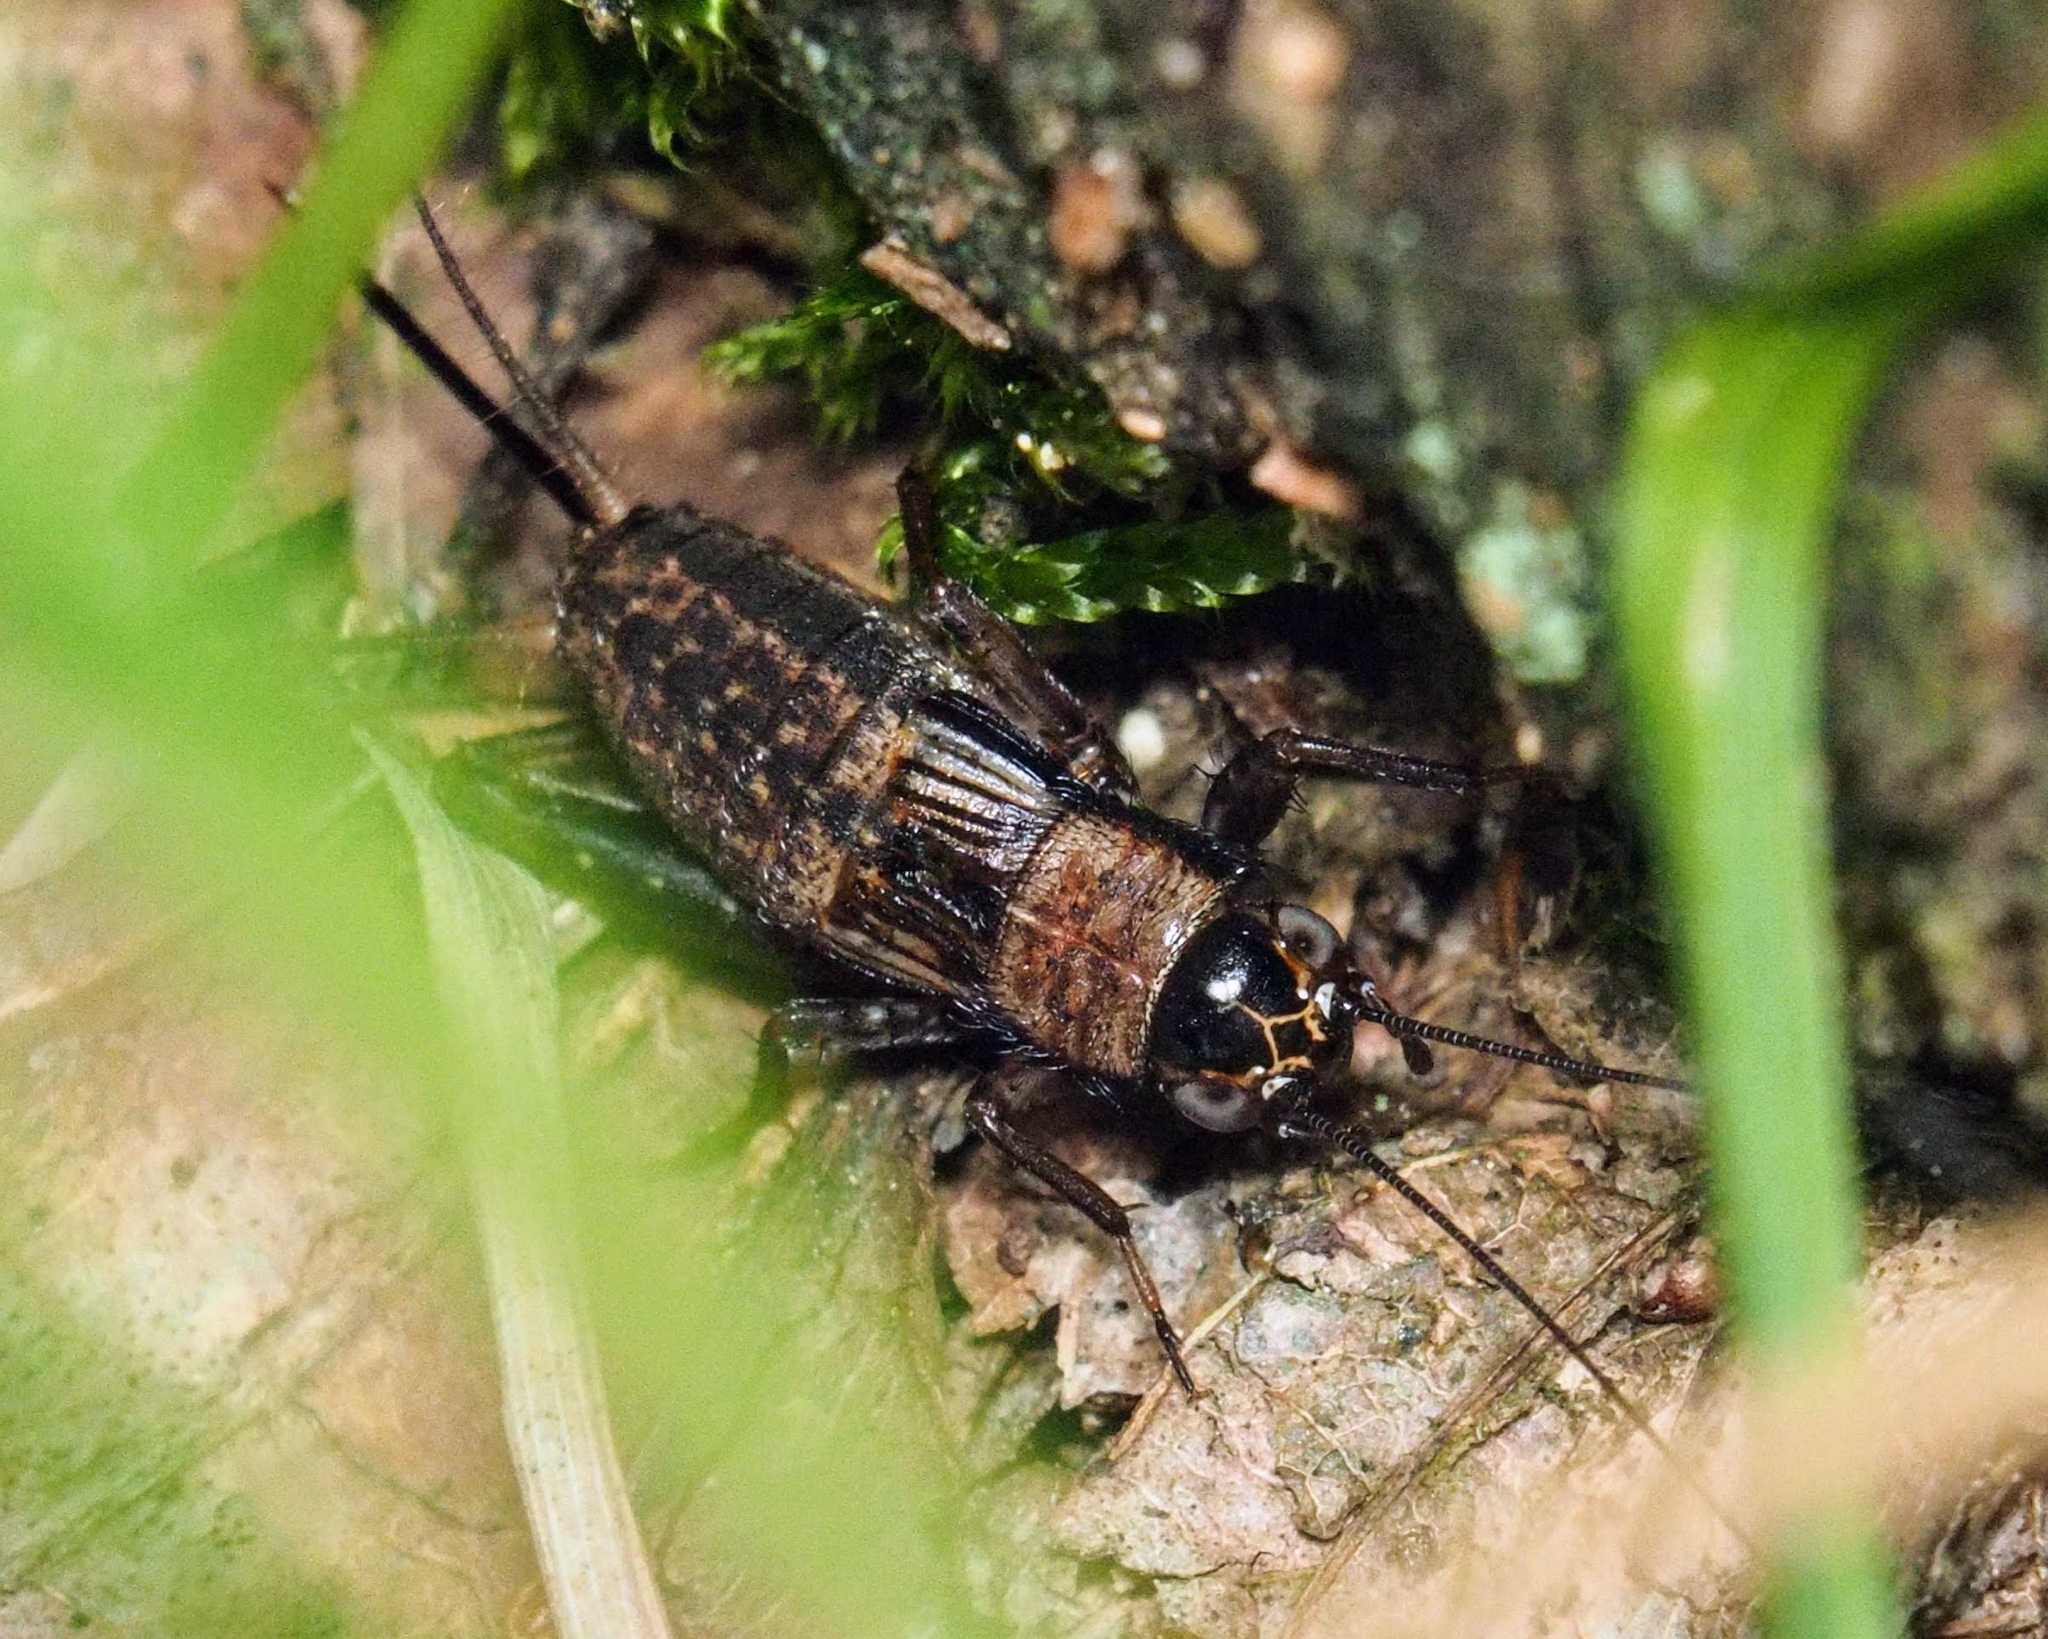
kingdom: Animalia
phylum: Arthropoda
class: Insecta
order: Orthoptera
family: Trigonidiidae
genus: Nemobius
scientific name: Nemobius sylvestris
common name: Wood-cricket
